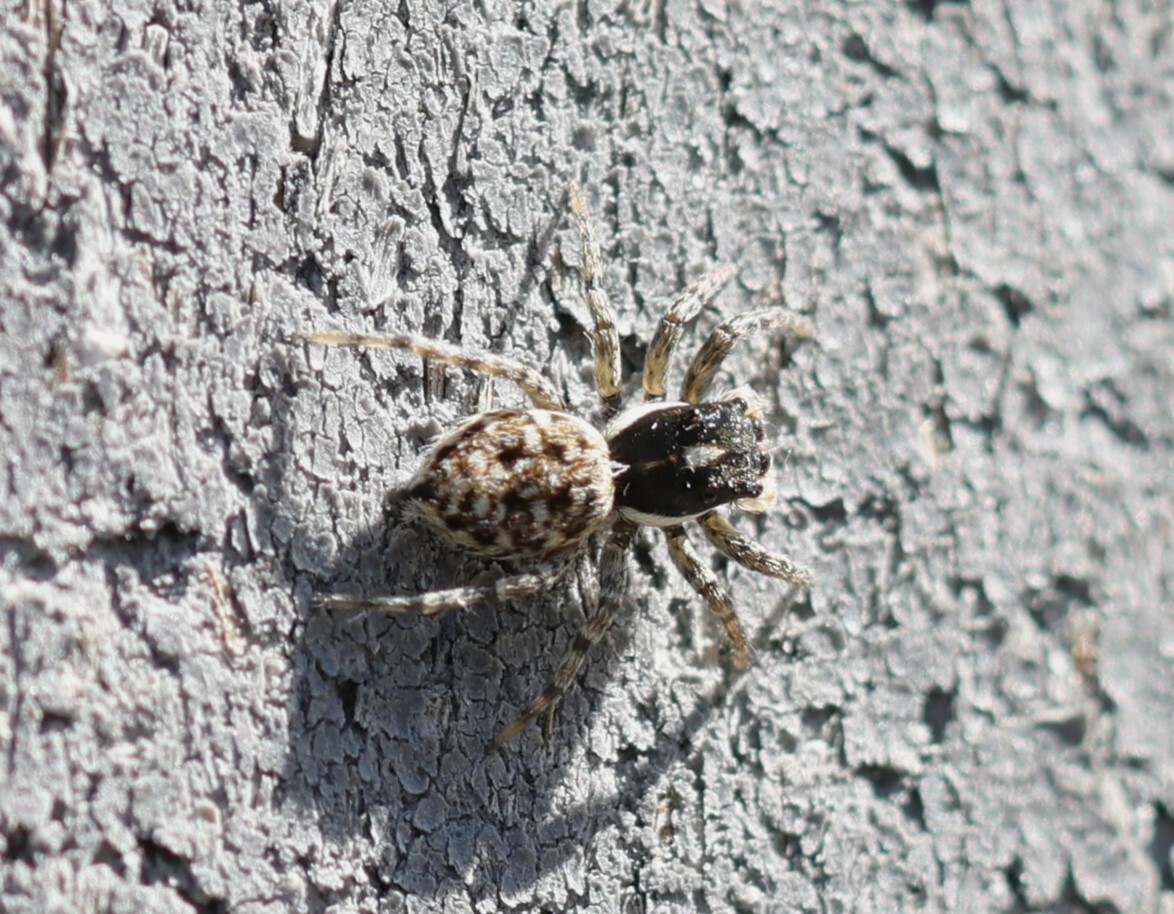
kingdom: Animalia
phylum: Arthropoda
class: Arachnida
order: Araneae
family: Salticidae
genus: Menemerus
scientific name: Menemerus semilimbatus
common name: Jumping spider
